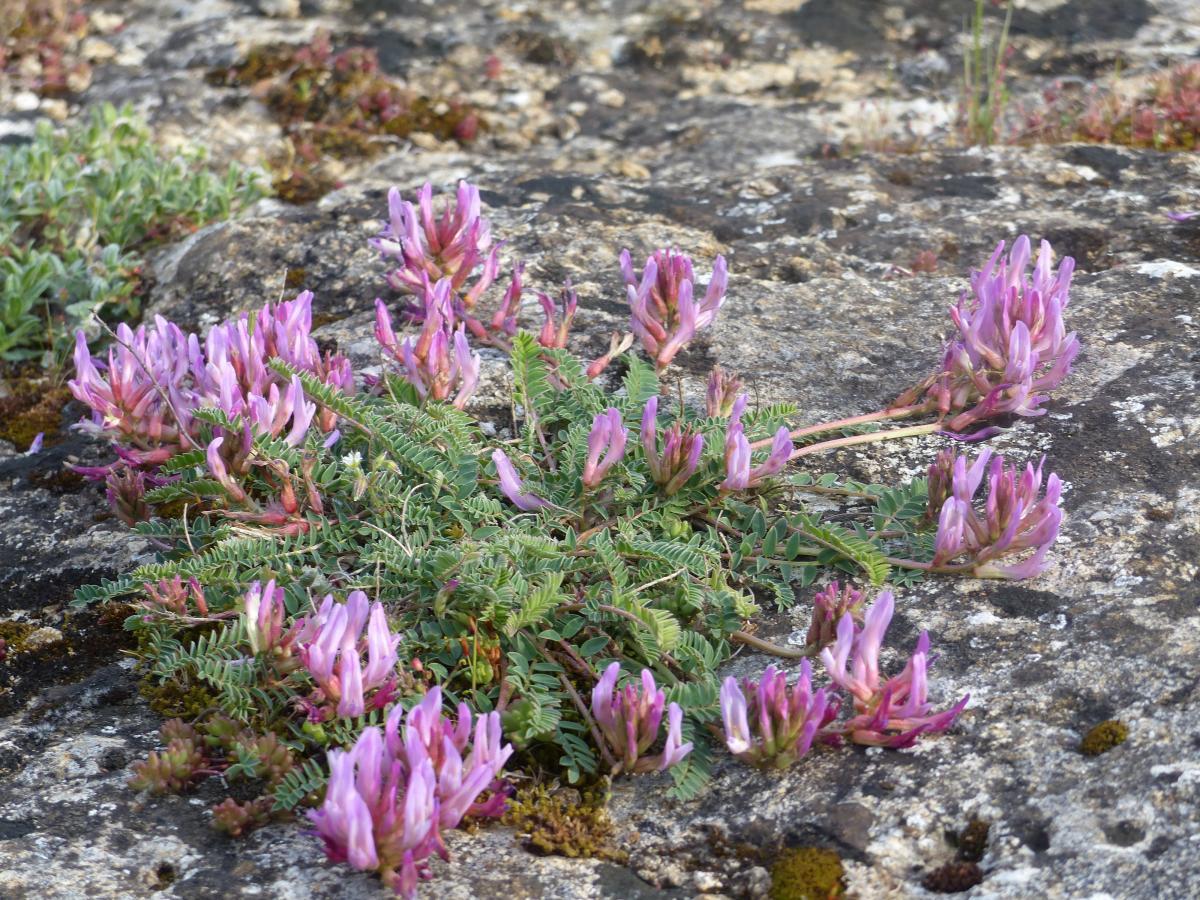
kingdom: Plantae
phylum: Tracheophyta
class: Magnoliopsida
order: Fabales
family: Fabaceae
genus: Astragalus
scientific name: Astragalus monspessulanus
